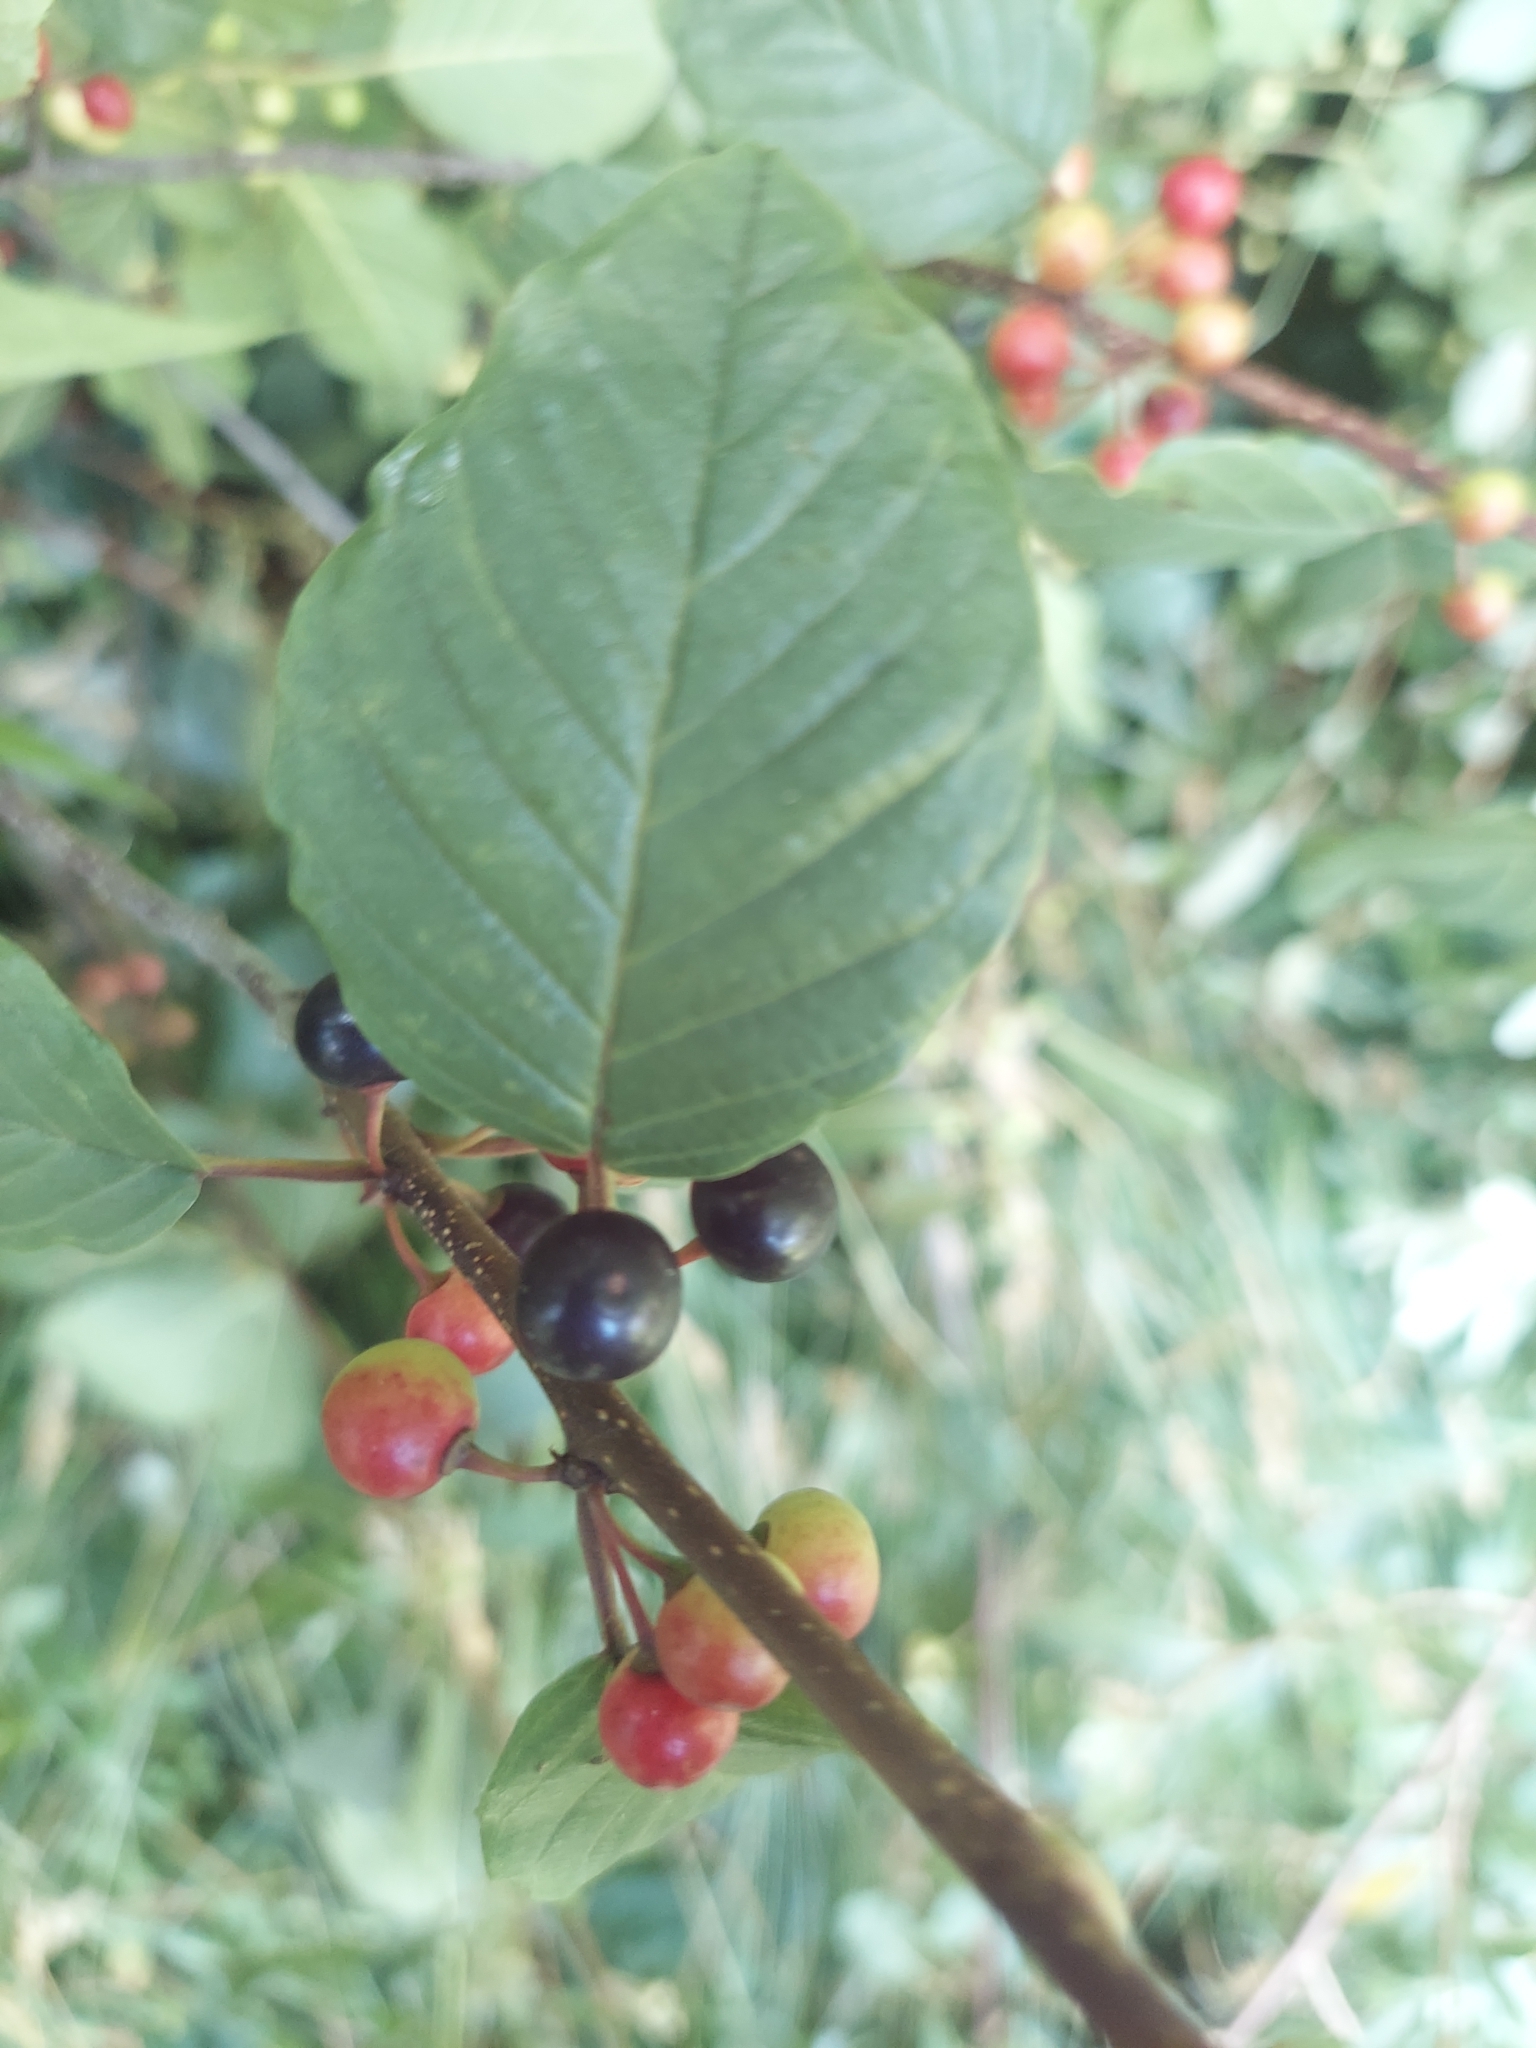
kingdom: Plantae
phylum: Tracheophyta
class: Magnoliopsida
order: Rosales
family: Rhamnaceae
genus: Frangula
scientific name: Frangula alnus
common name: Alder buckthorn
